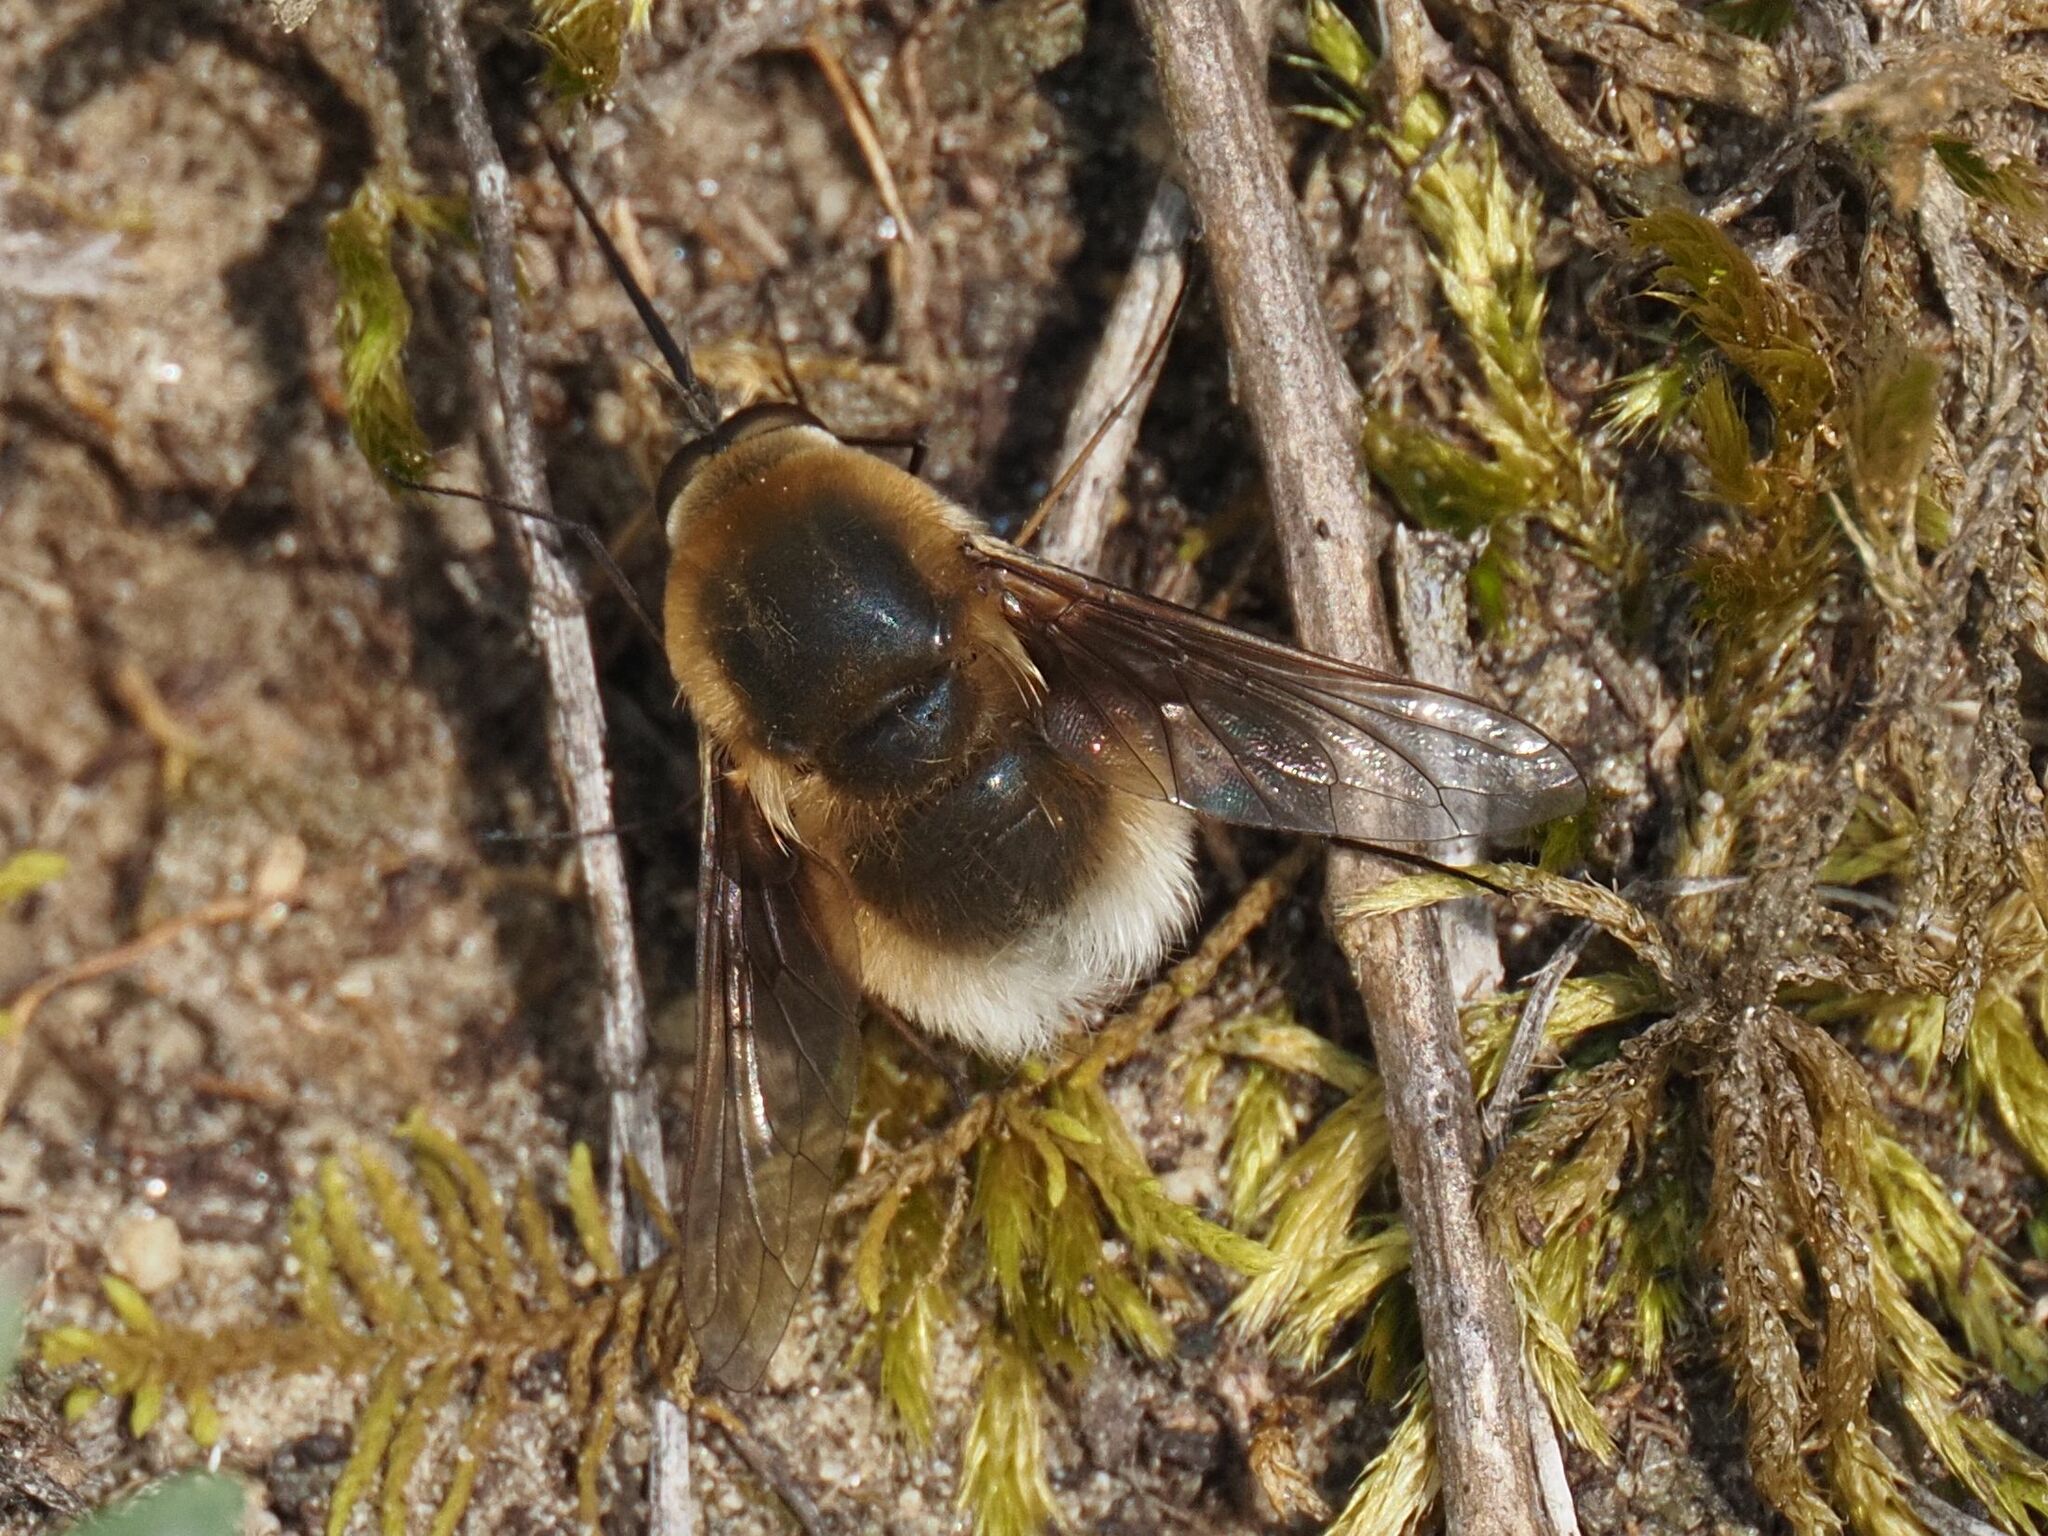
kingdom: Animalia
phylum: Arthropoda
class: Insecta
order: Diptera
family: Bombyliidae
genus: Bombylius
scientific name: Bombylius posticus
